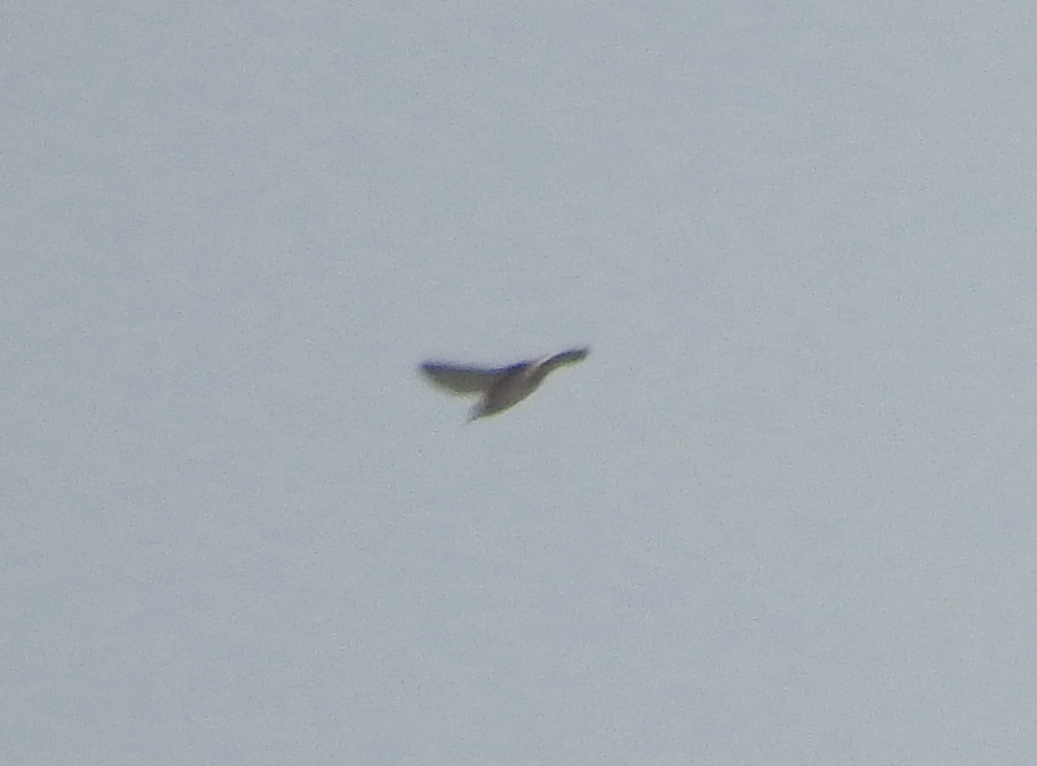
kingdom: Animalia
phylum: Chordata
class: Aves
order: Passeriformes
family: Artamidae
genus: Artamus
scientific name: Artamus fuscus
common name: Ashy woodswallow
